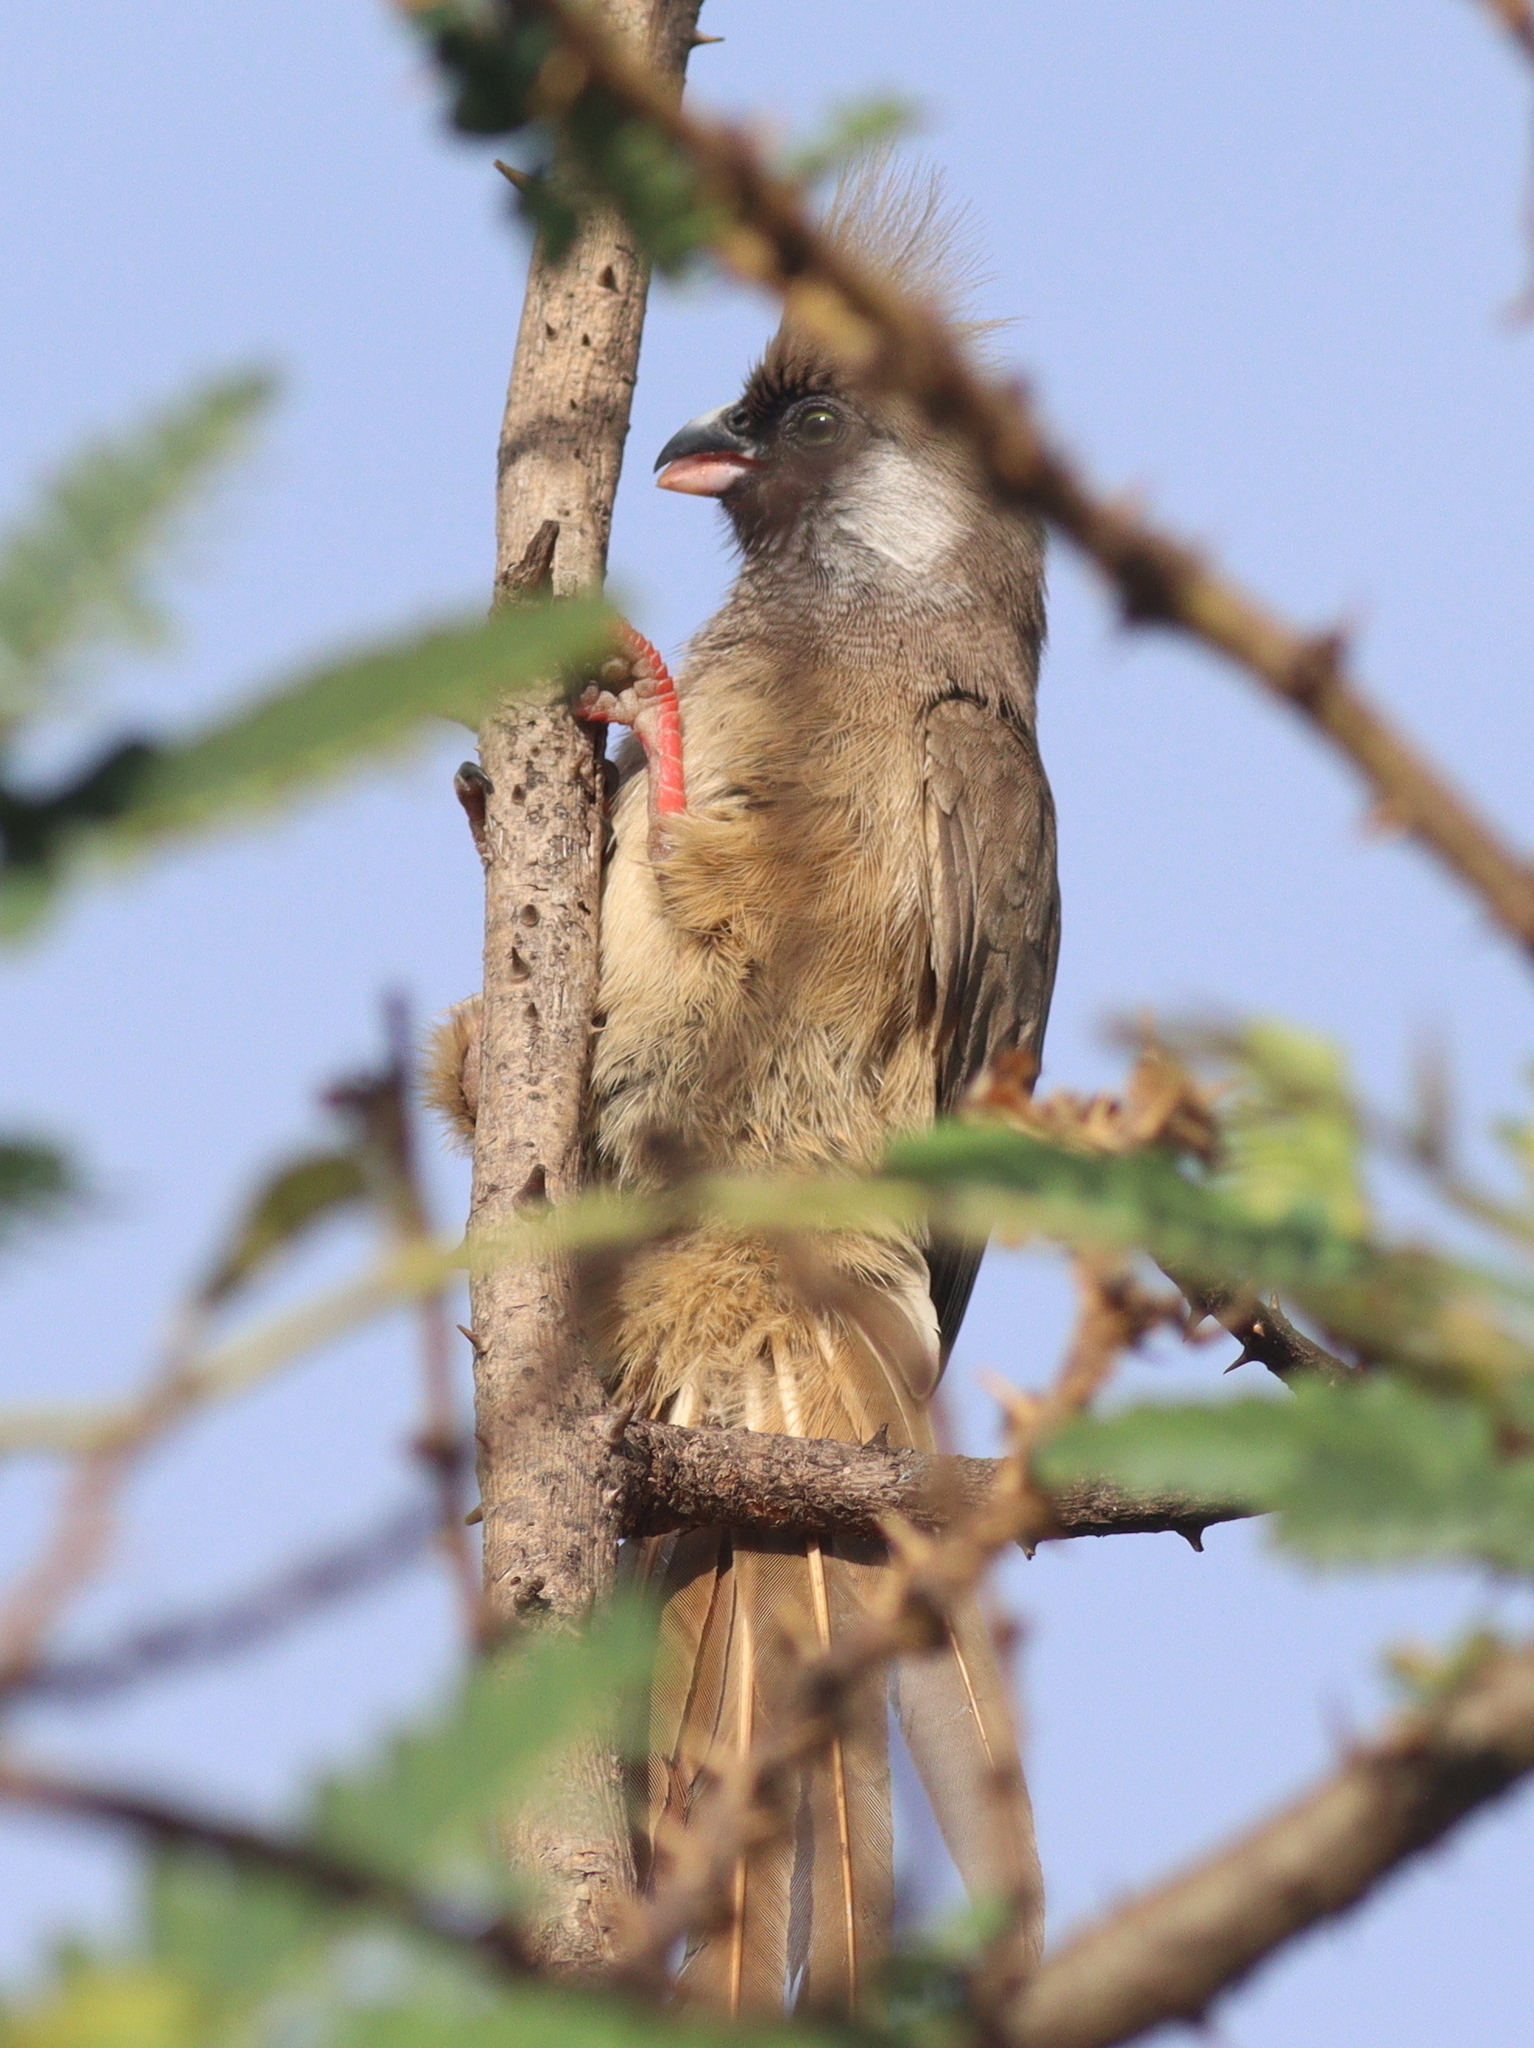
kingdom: Animalia
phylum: Chordata
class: Aves
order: Coliiformes
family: Coliidae
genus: Colius
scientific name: Colius striatus
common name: Speckled mousebird
